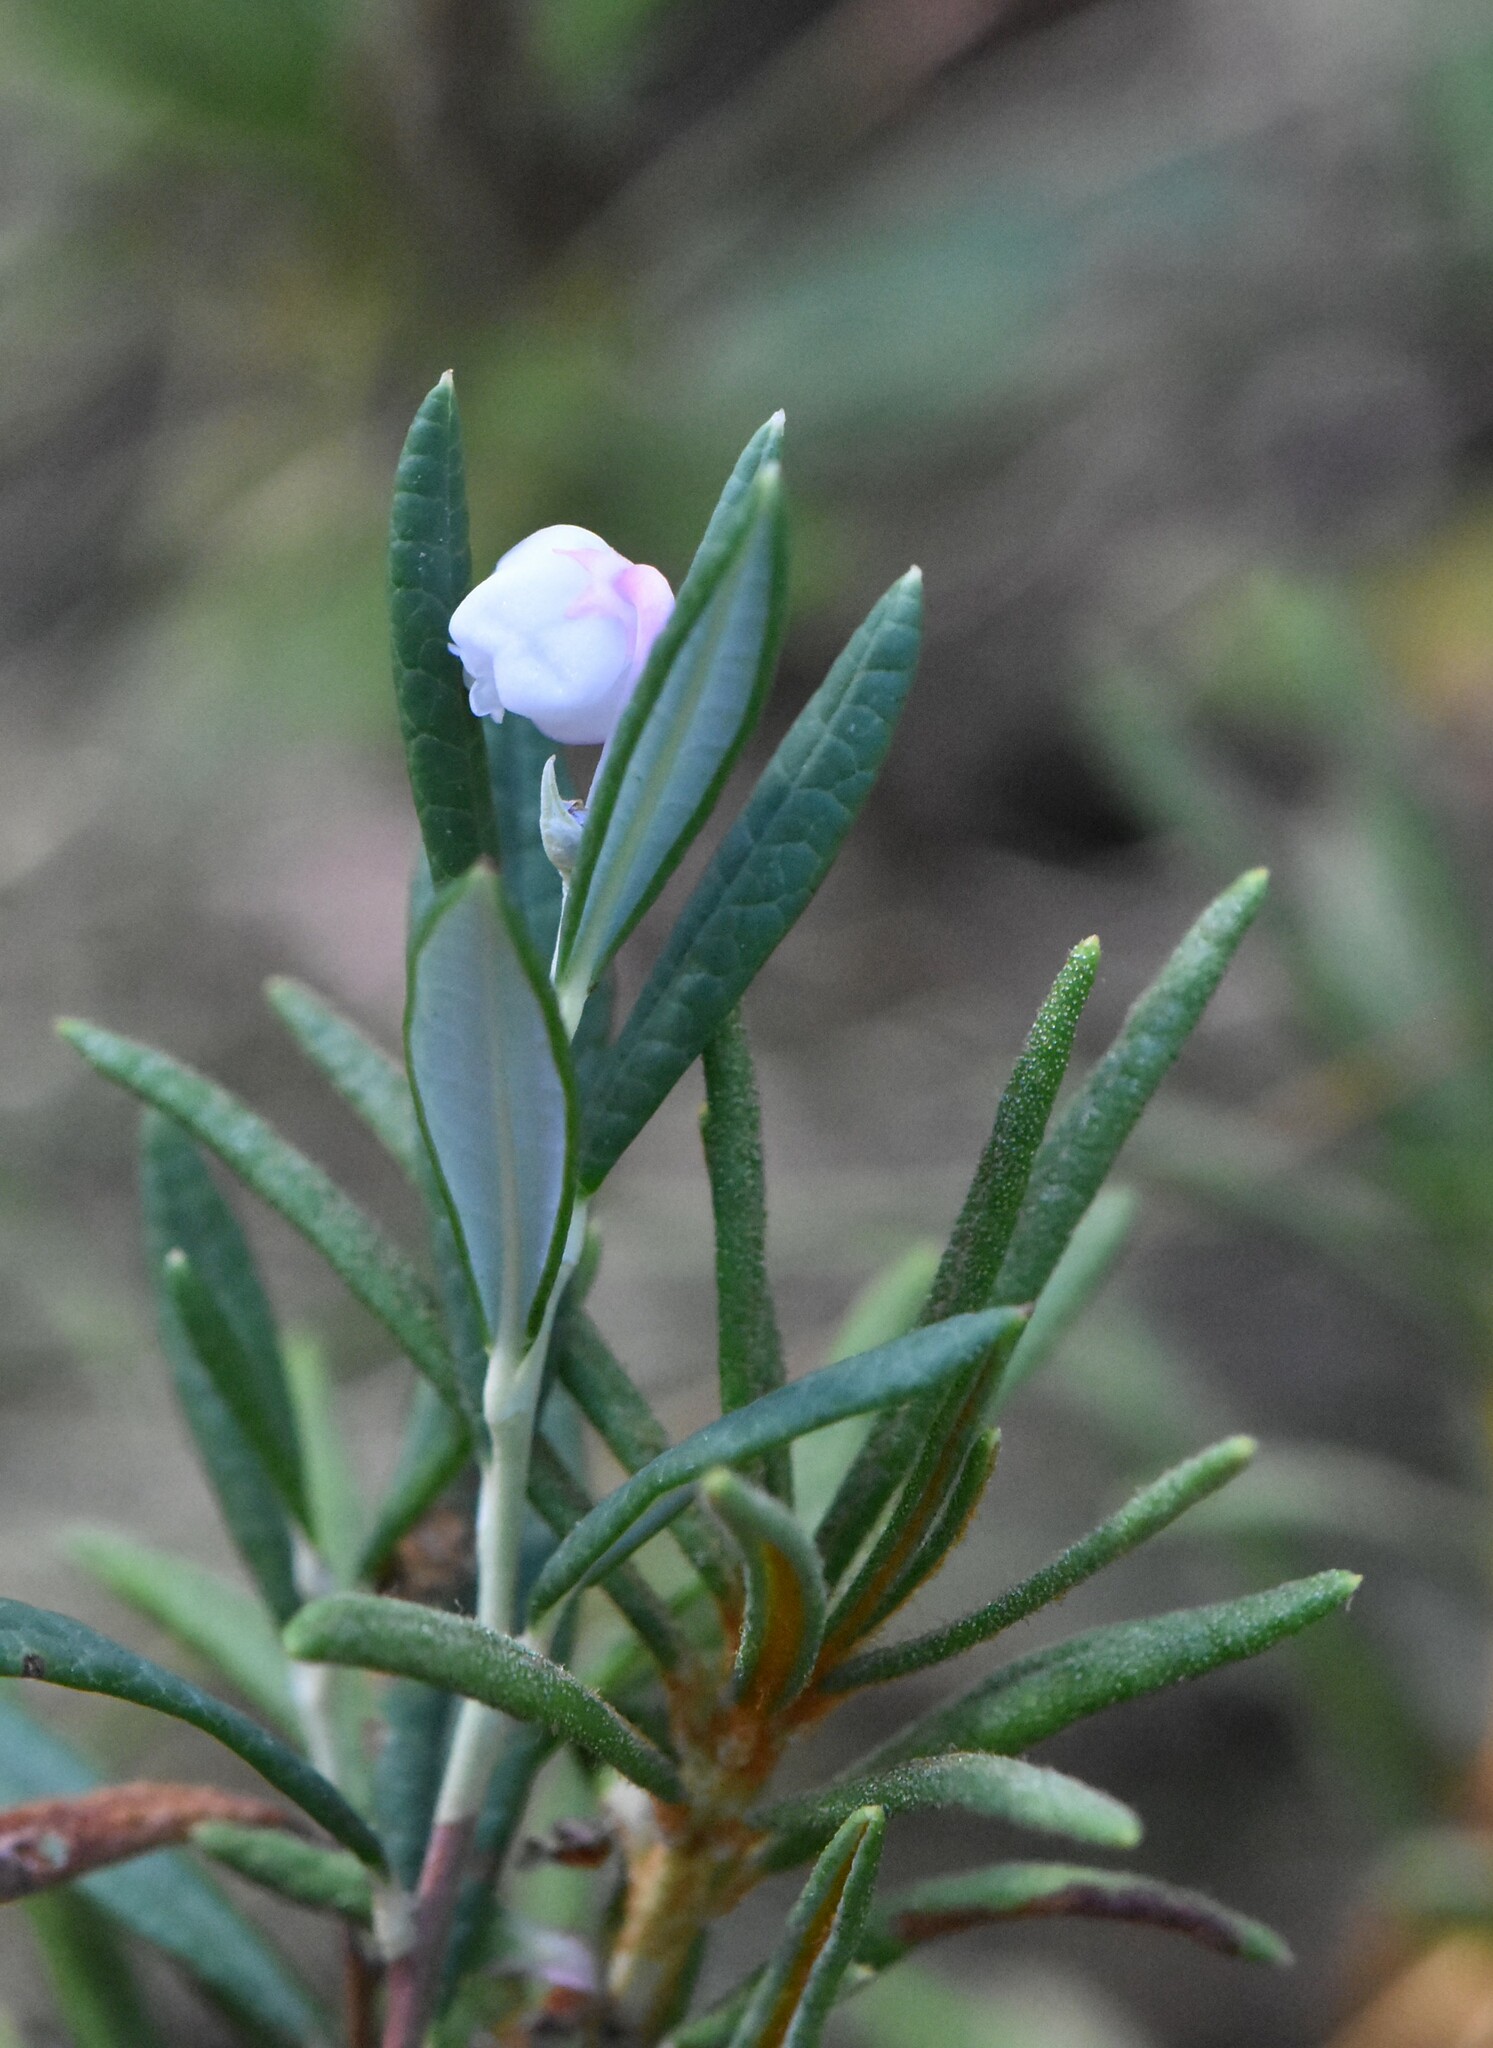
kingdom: Plantae
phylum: Tracheophyta
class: Magnoliopsida
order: Ericales
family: Ericaceae
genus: Andromeda
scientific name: Andromeda polifolia
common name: Bog-rosemary
